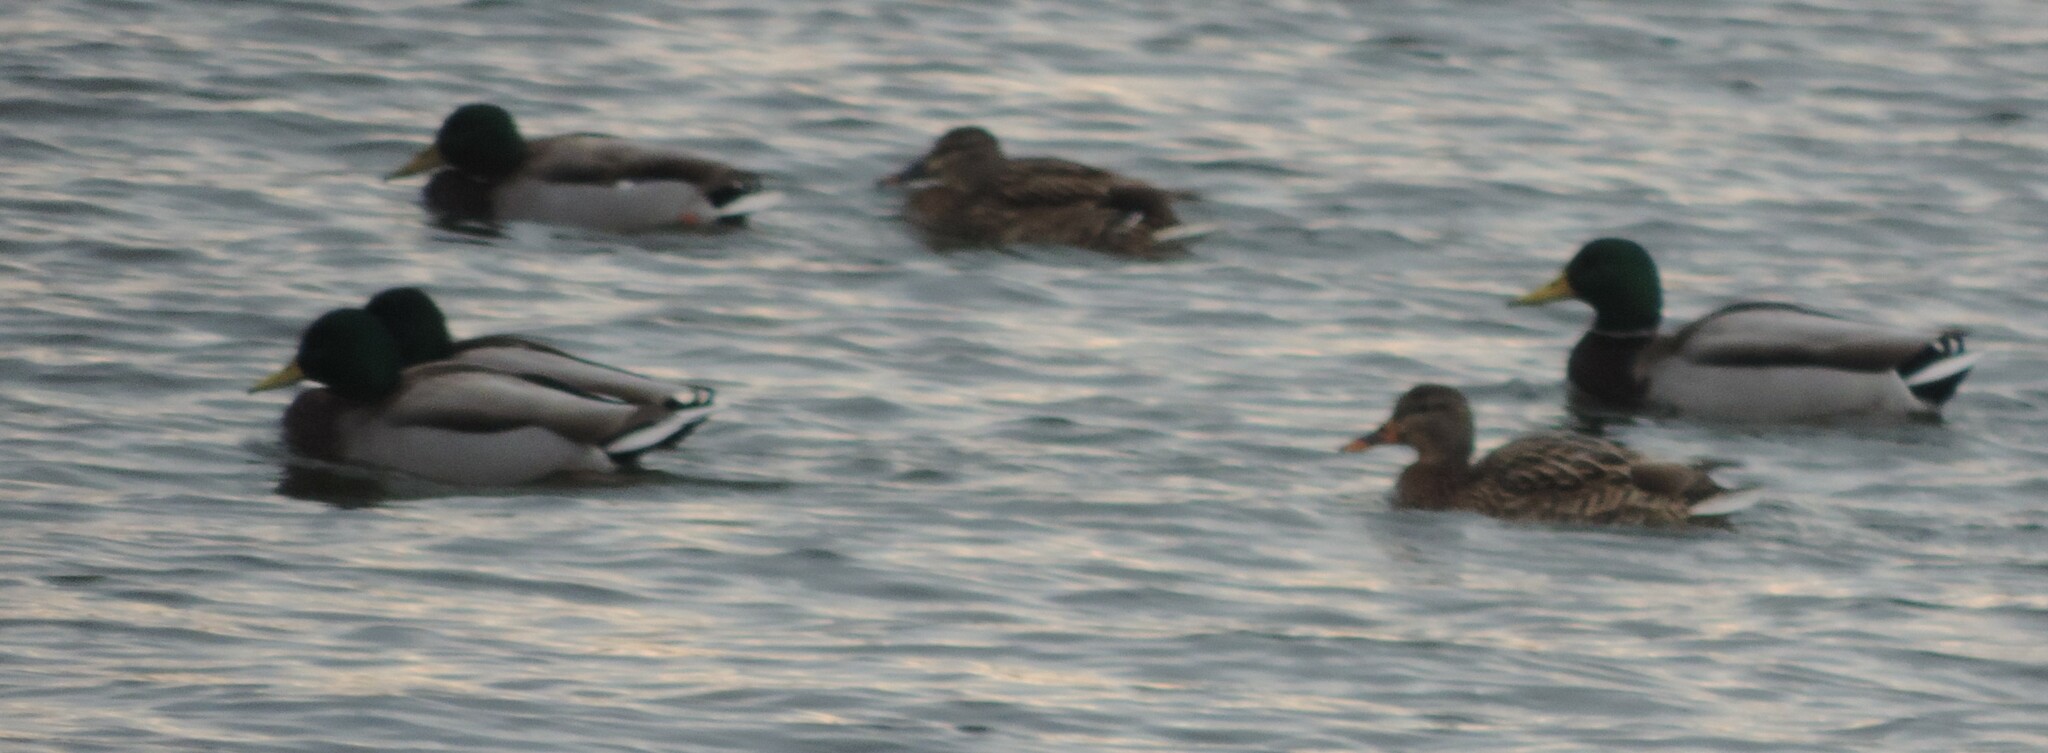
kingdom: Animalia
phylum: Chordata
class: Aves
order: Anseriformes
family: Anatidae
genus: Anas
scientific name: Anas platyrhynchos
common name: Mallard
